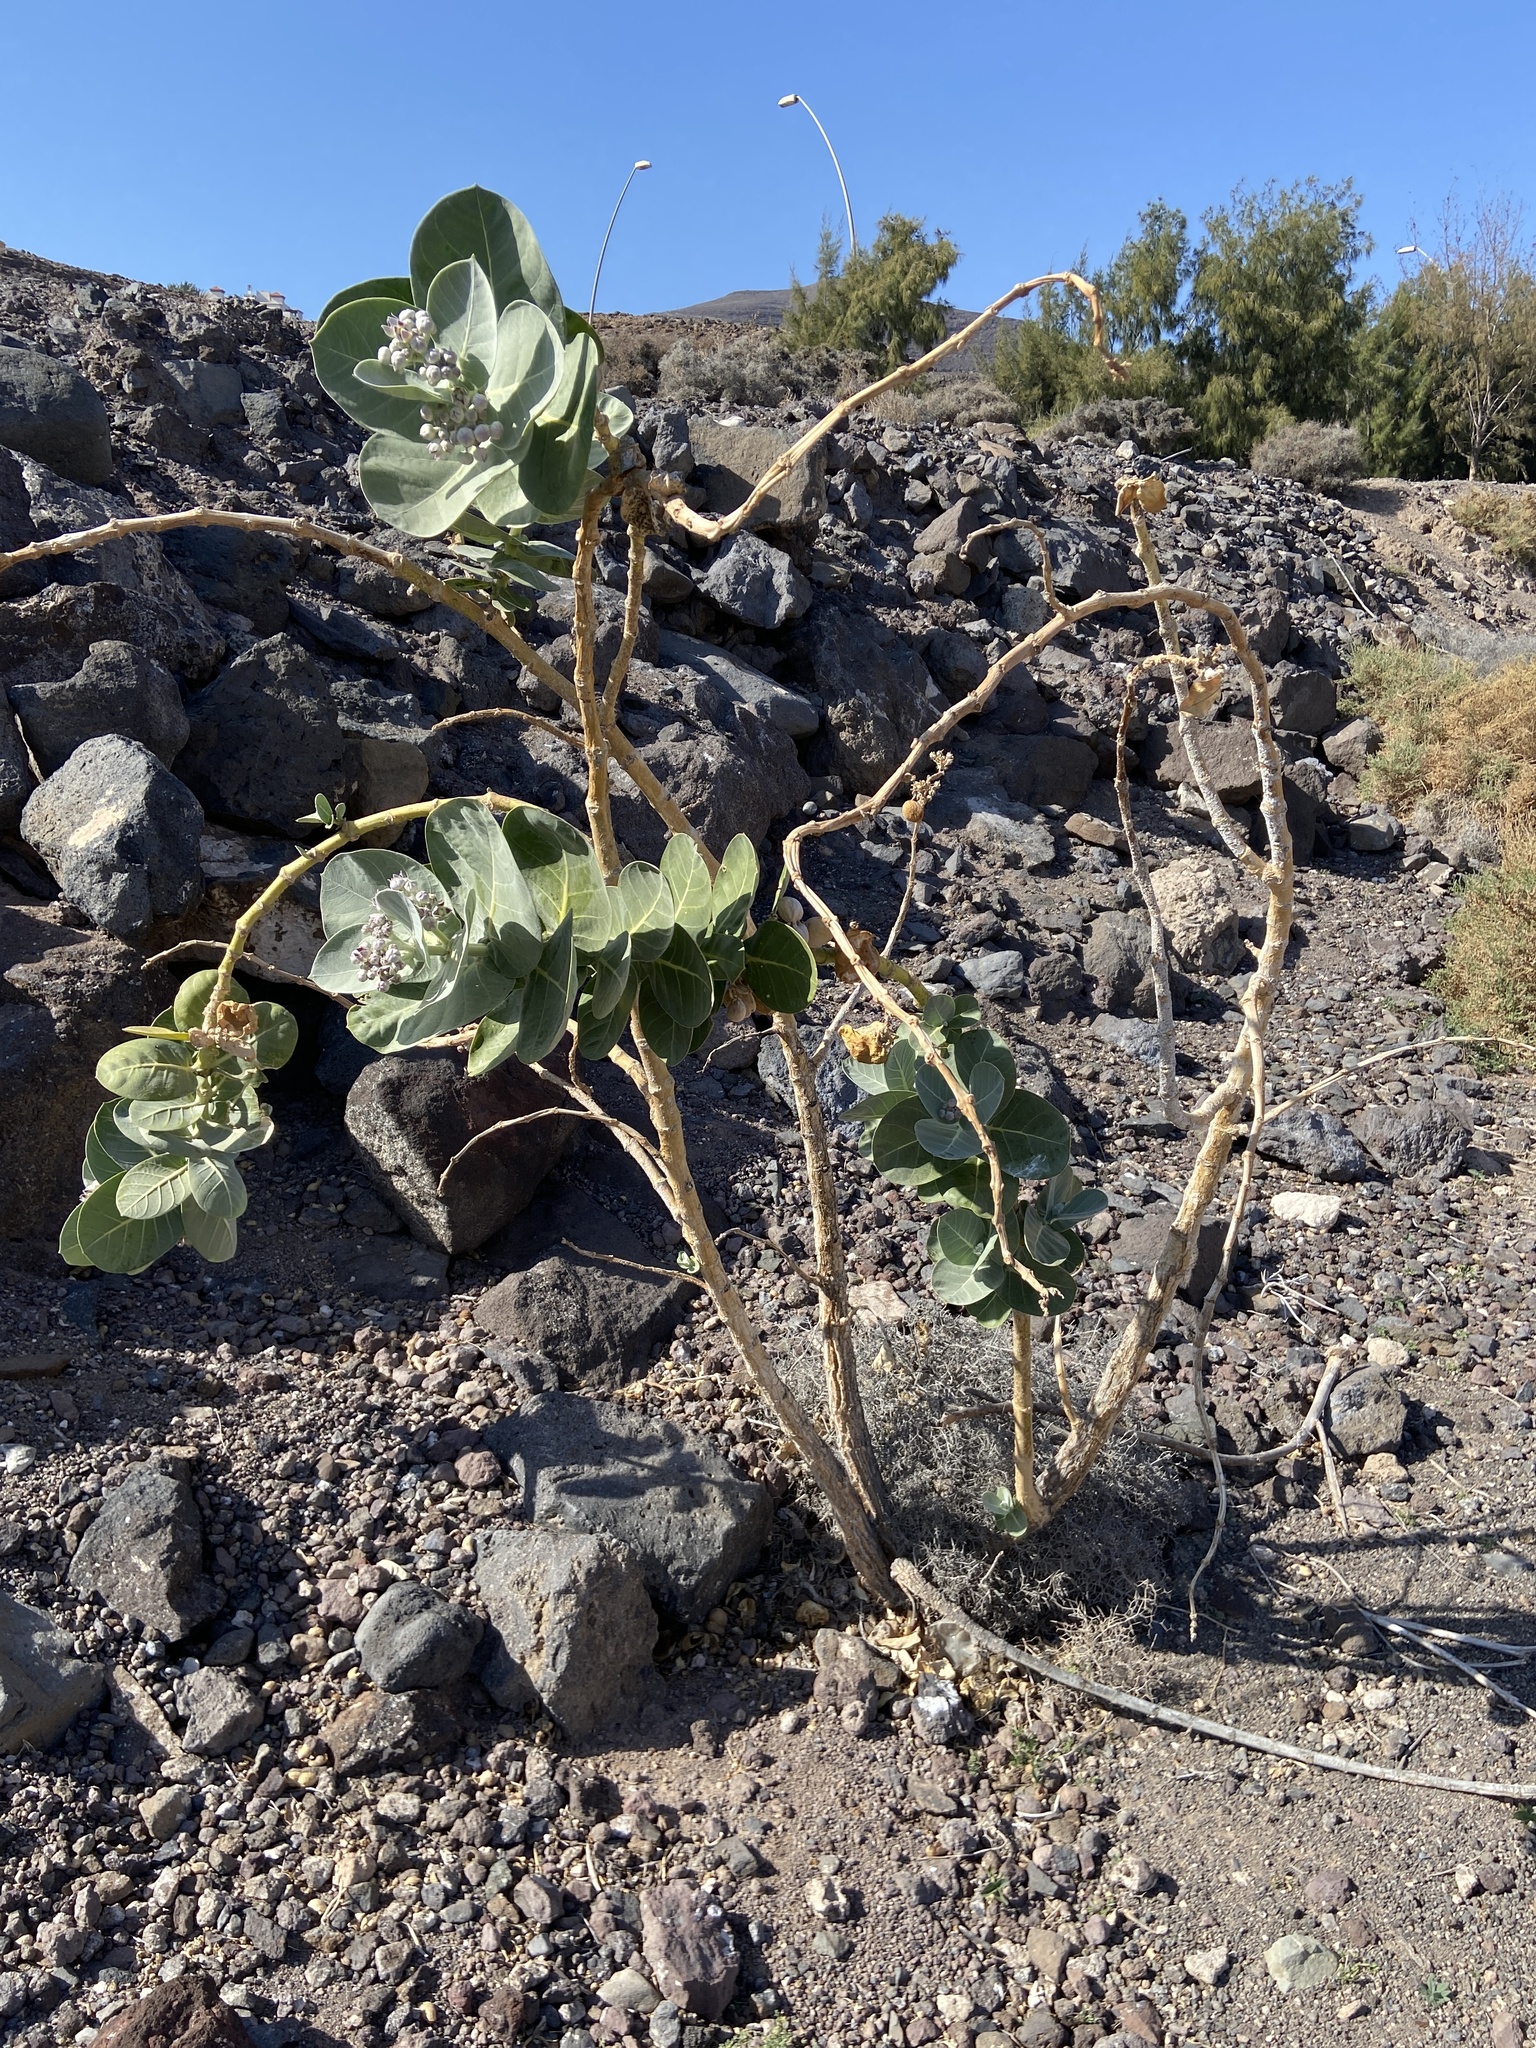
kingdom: Plantae
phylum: Tracheophyta
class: Magnoliopsida
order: Gentianales
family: Apocynaceae
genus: Calotropis
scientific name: Calotropis procera
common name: Roostertree
